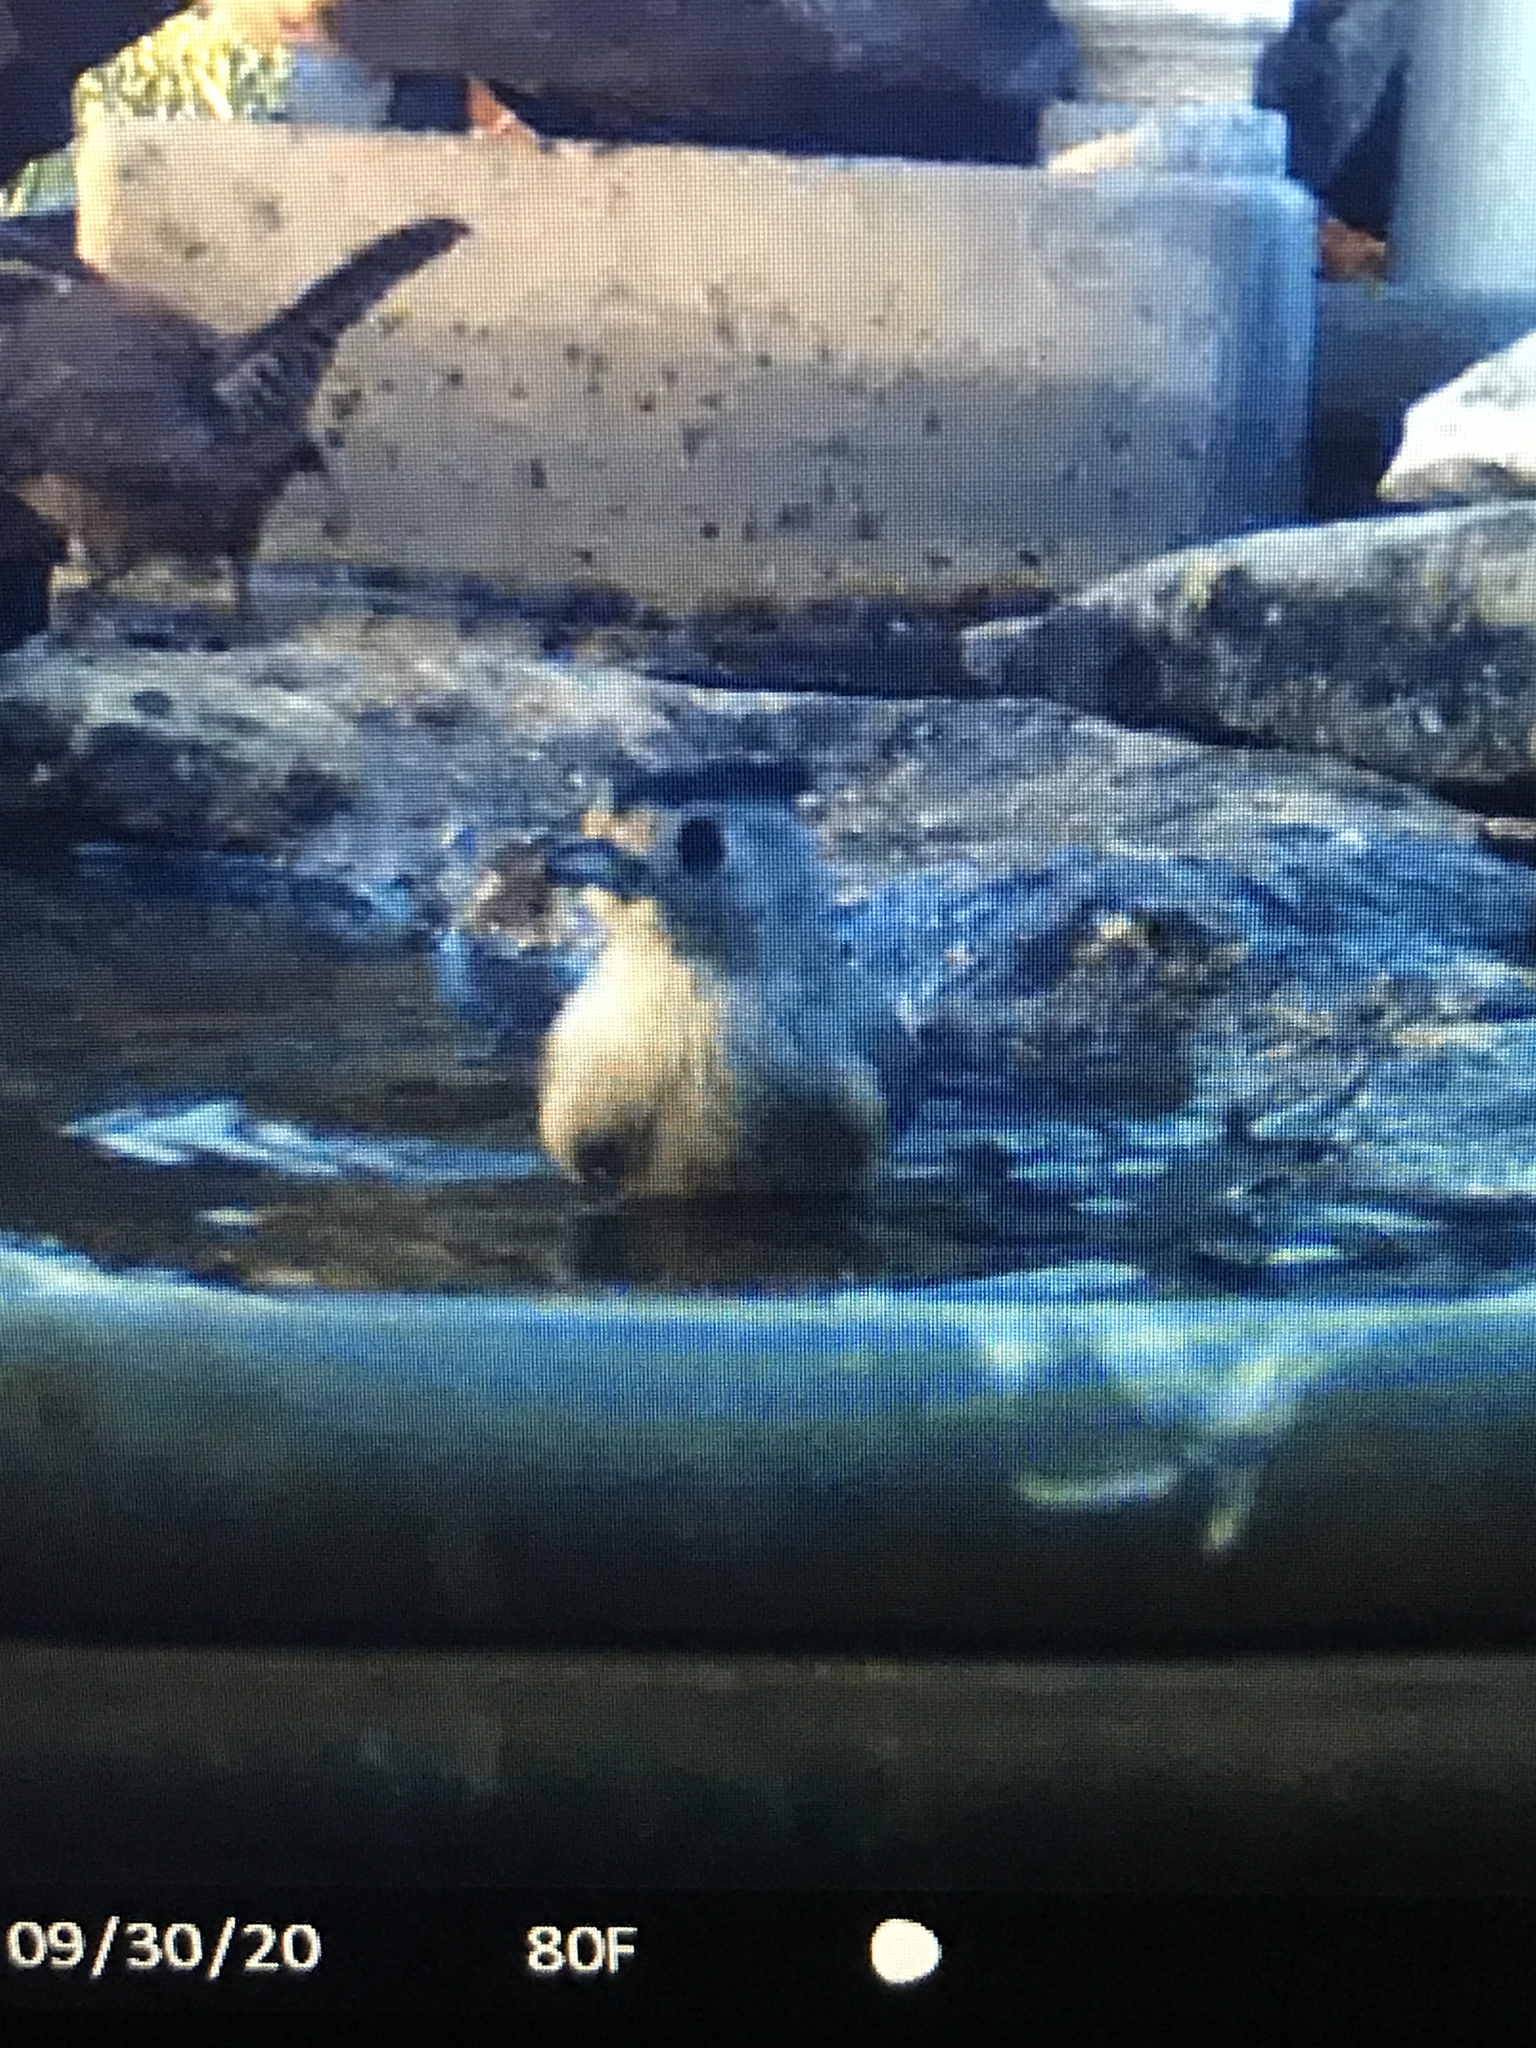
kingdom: Animalia
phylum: Chordata
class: Aves
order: Passeriformes
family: Paridae
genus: Baeolophus
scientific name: Baeolophus atricristatus
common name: Black-crested titmouse
